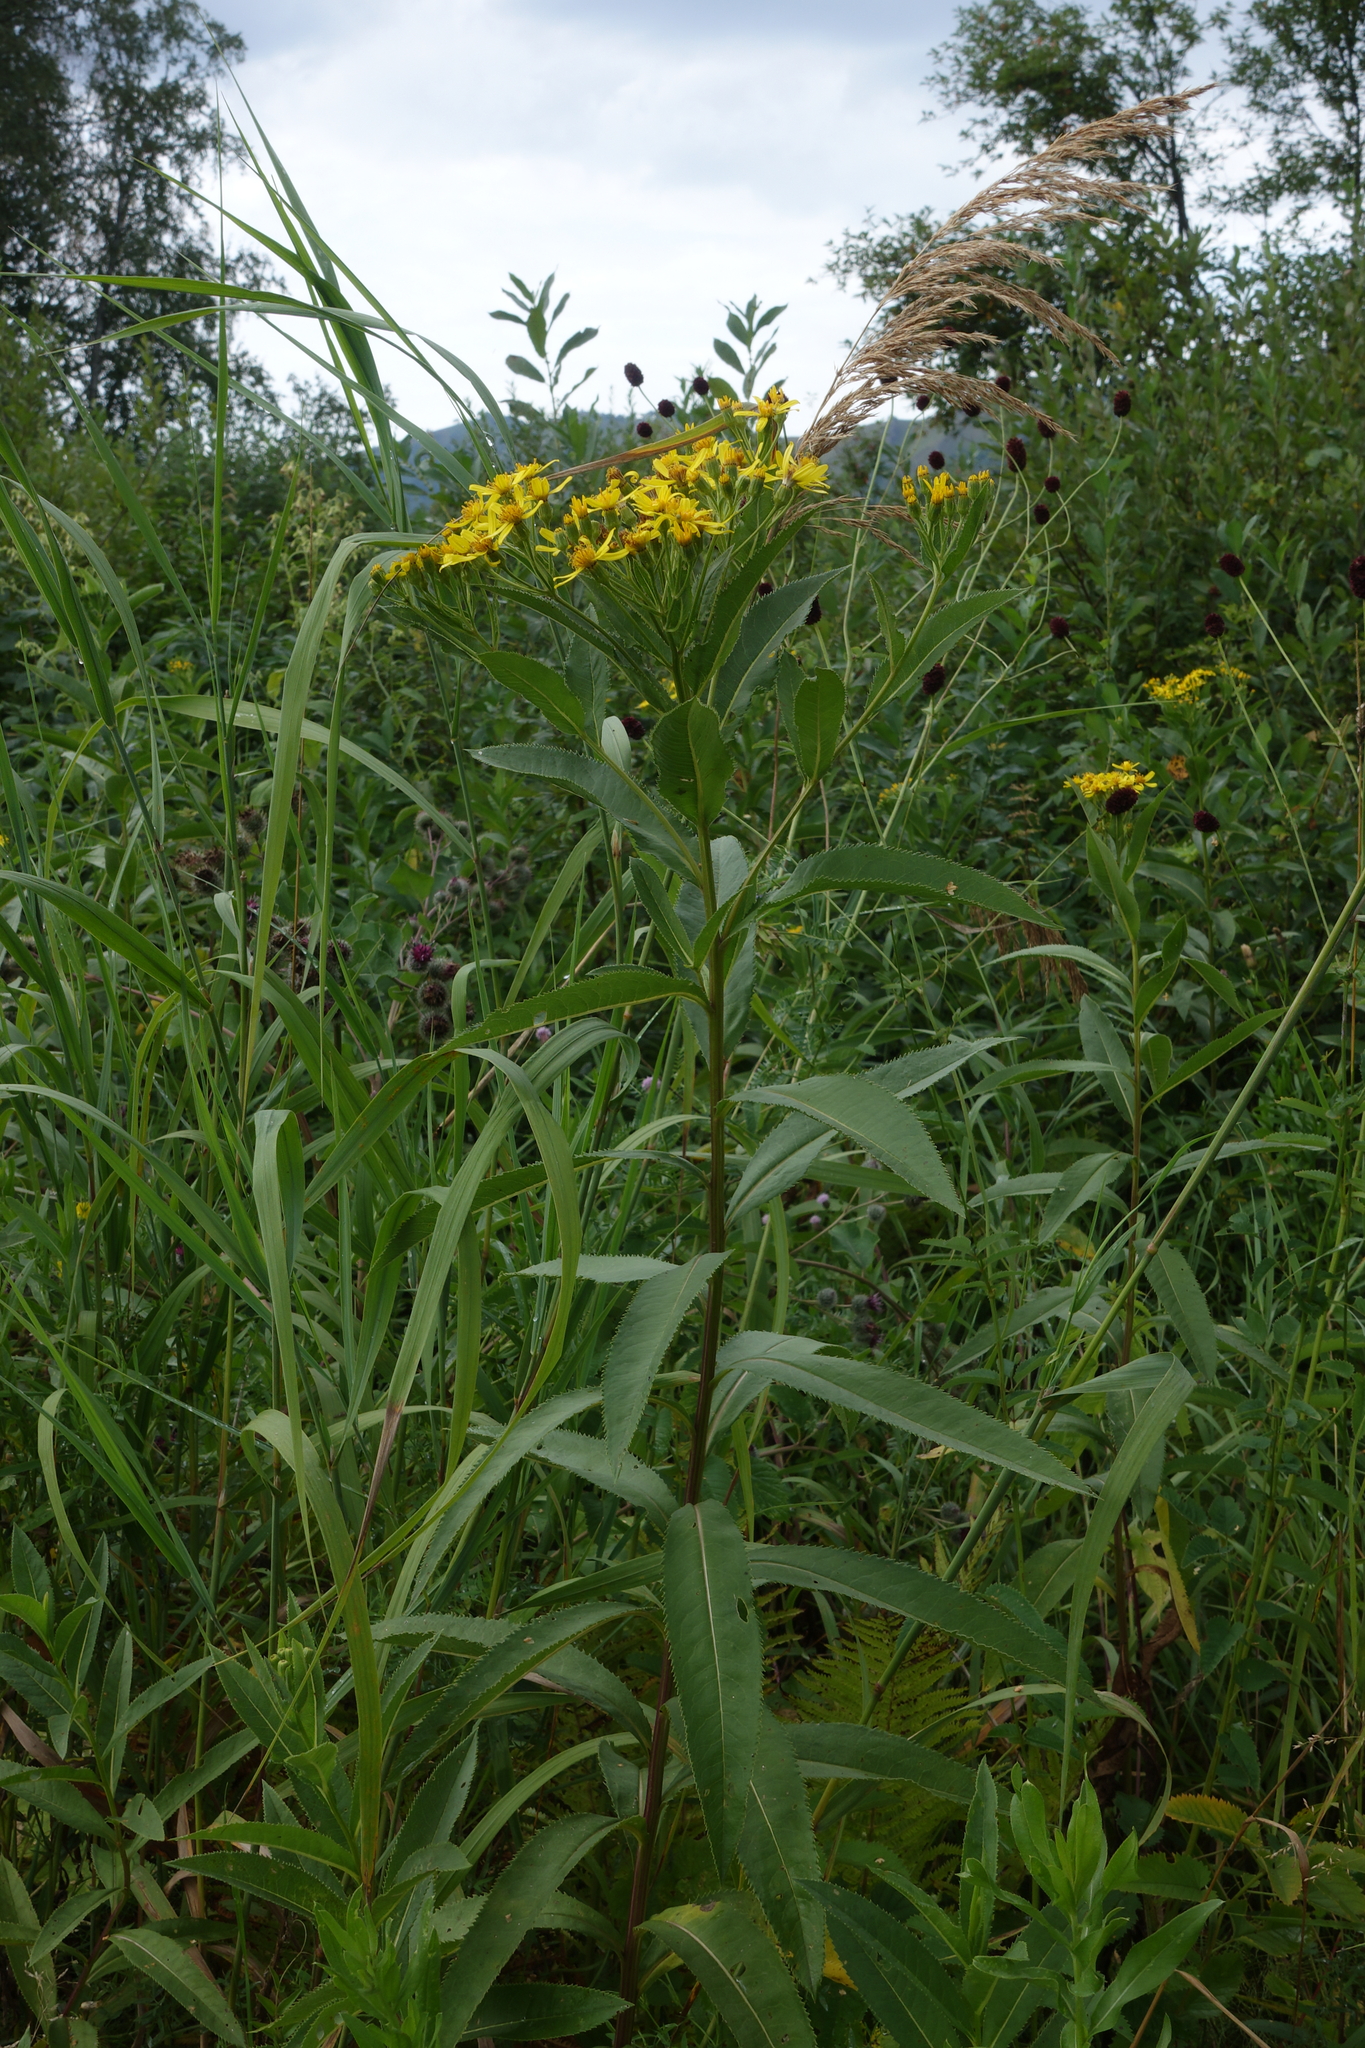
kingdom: Plantae
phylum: Tracheophyta
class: Magnoliopsida
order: Asterales
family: Asteraceae
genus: Senecio
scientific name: Senecio sarracenicus
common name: Broad-leaved ragwort
